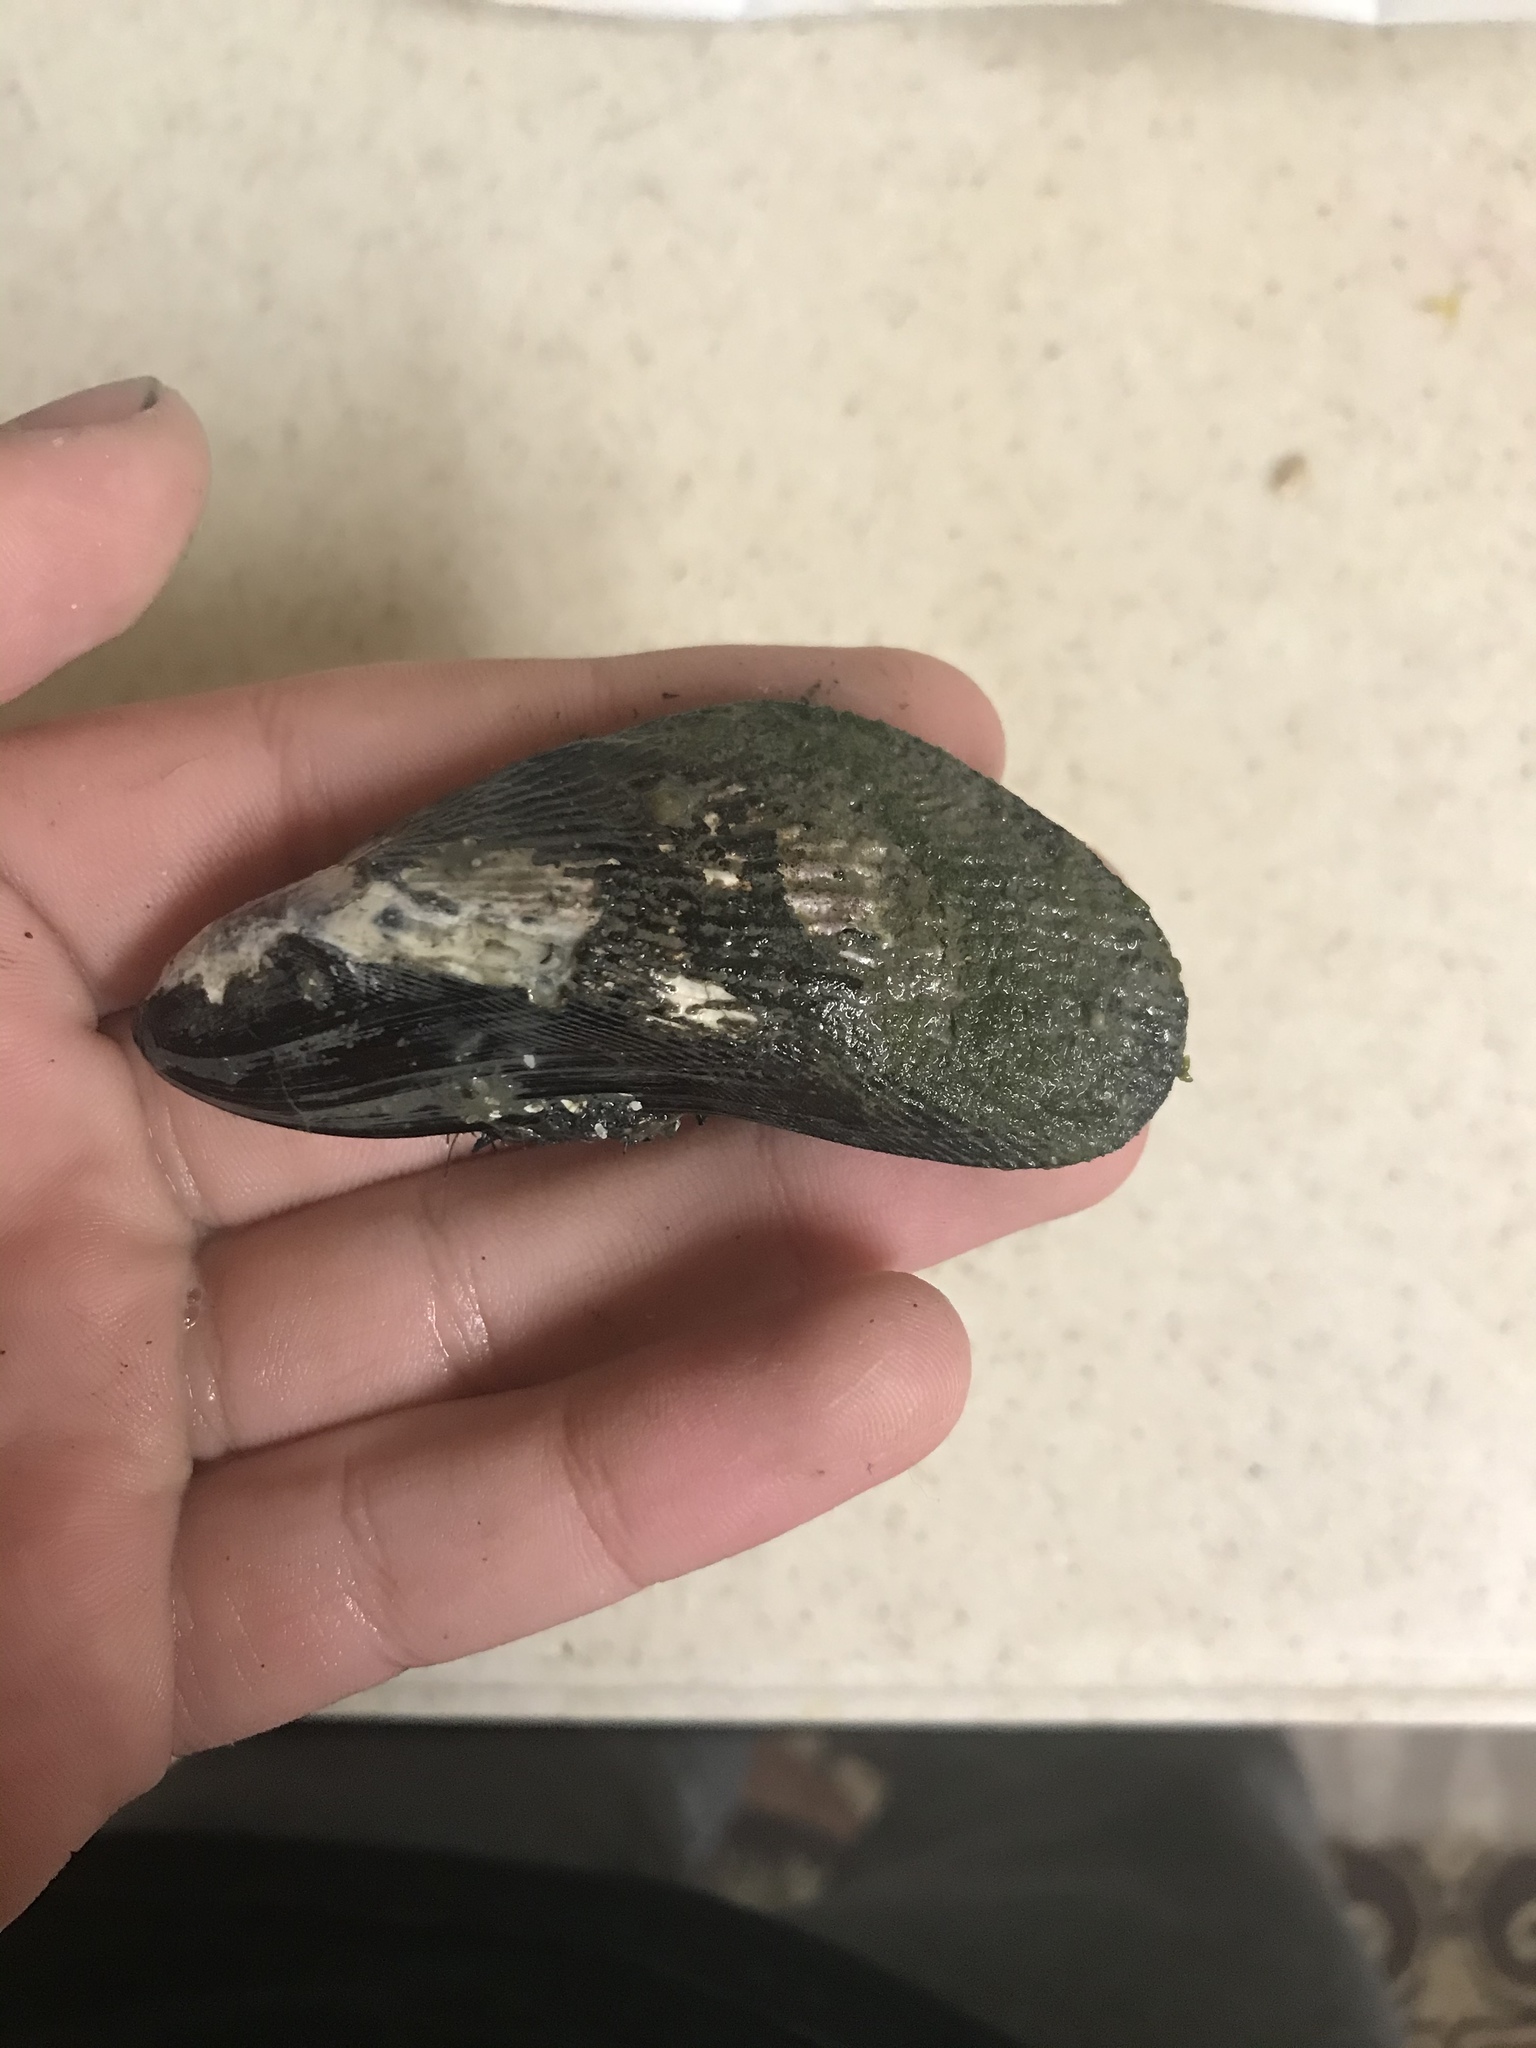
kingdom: Animalia
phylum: Mollusca
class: Bivalvia
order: Mytilida
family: Mytilidae
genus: Geukensia
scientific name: Geukensia demissa
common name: Ribbed mussel
